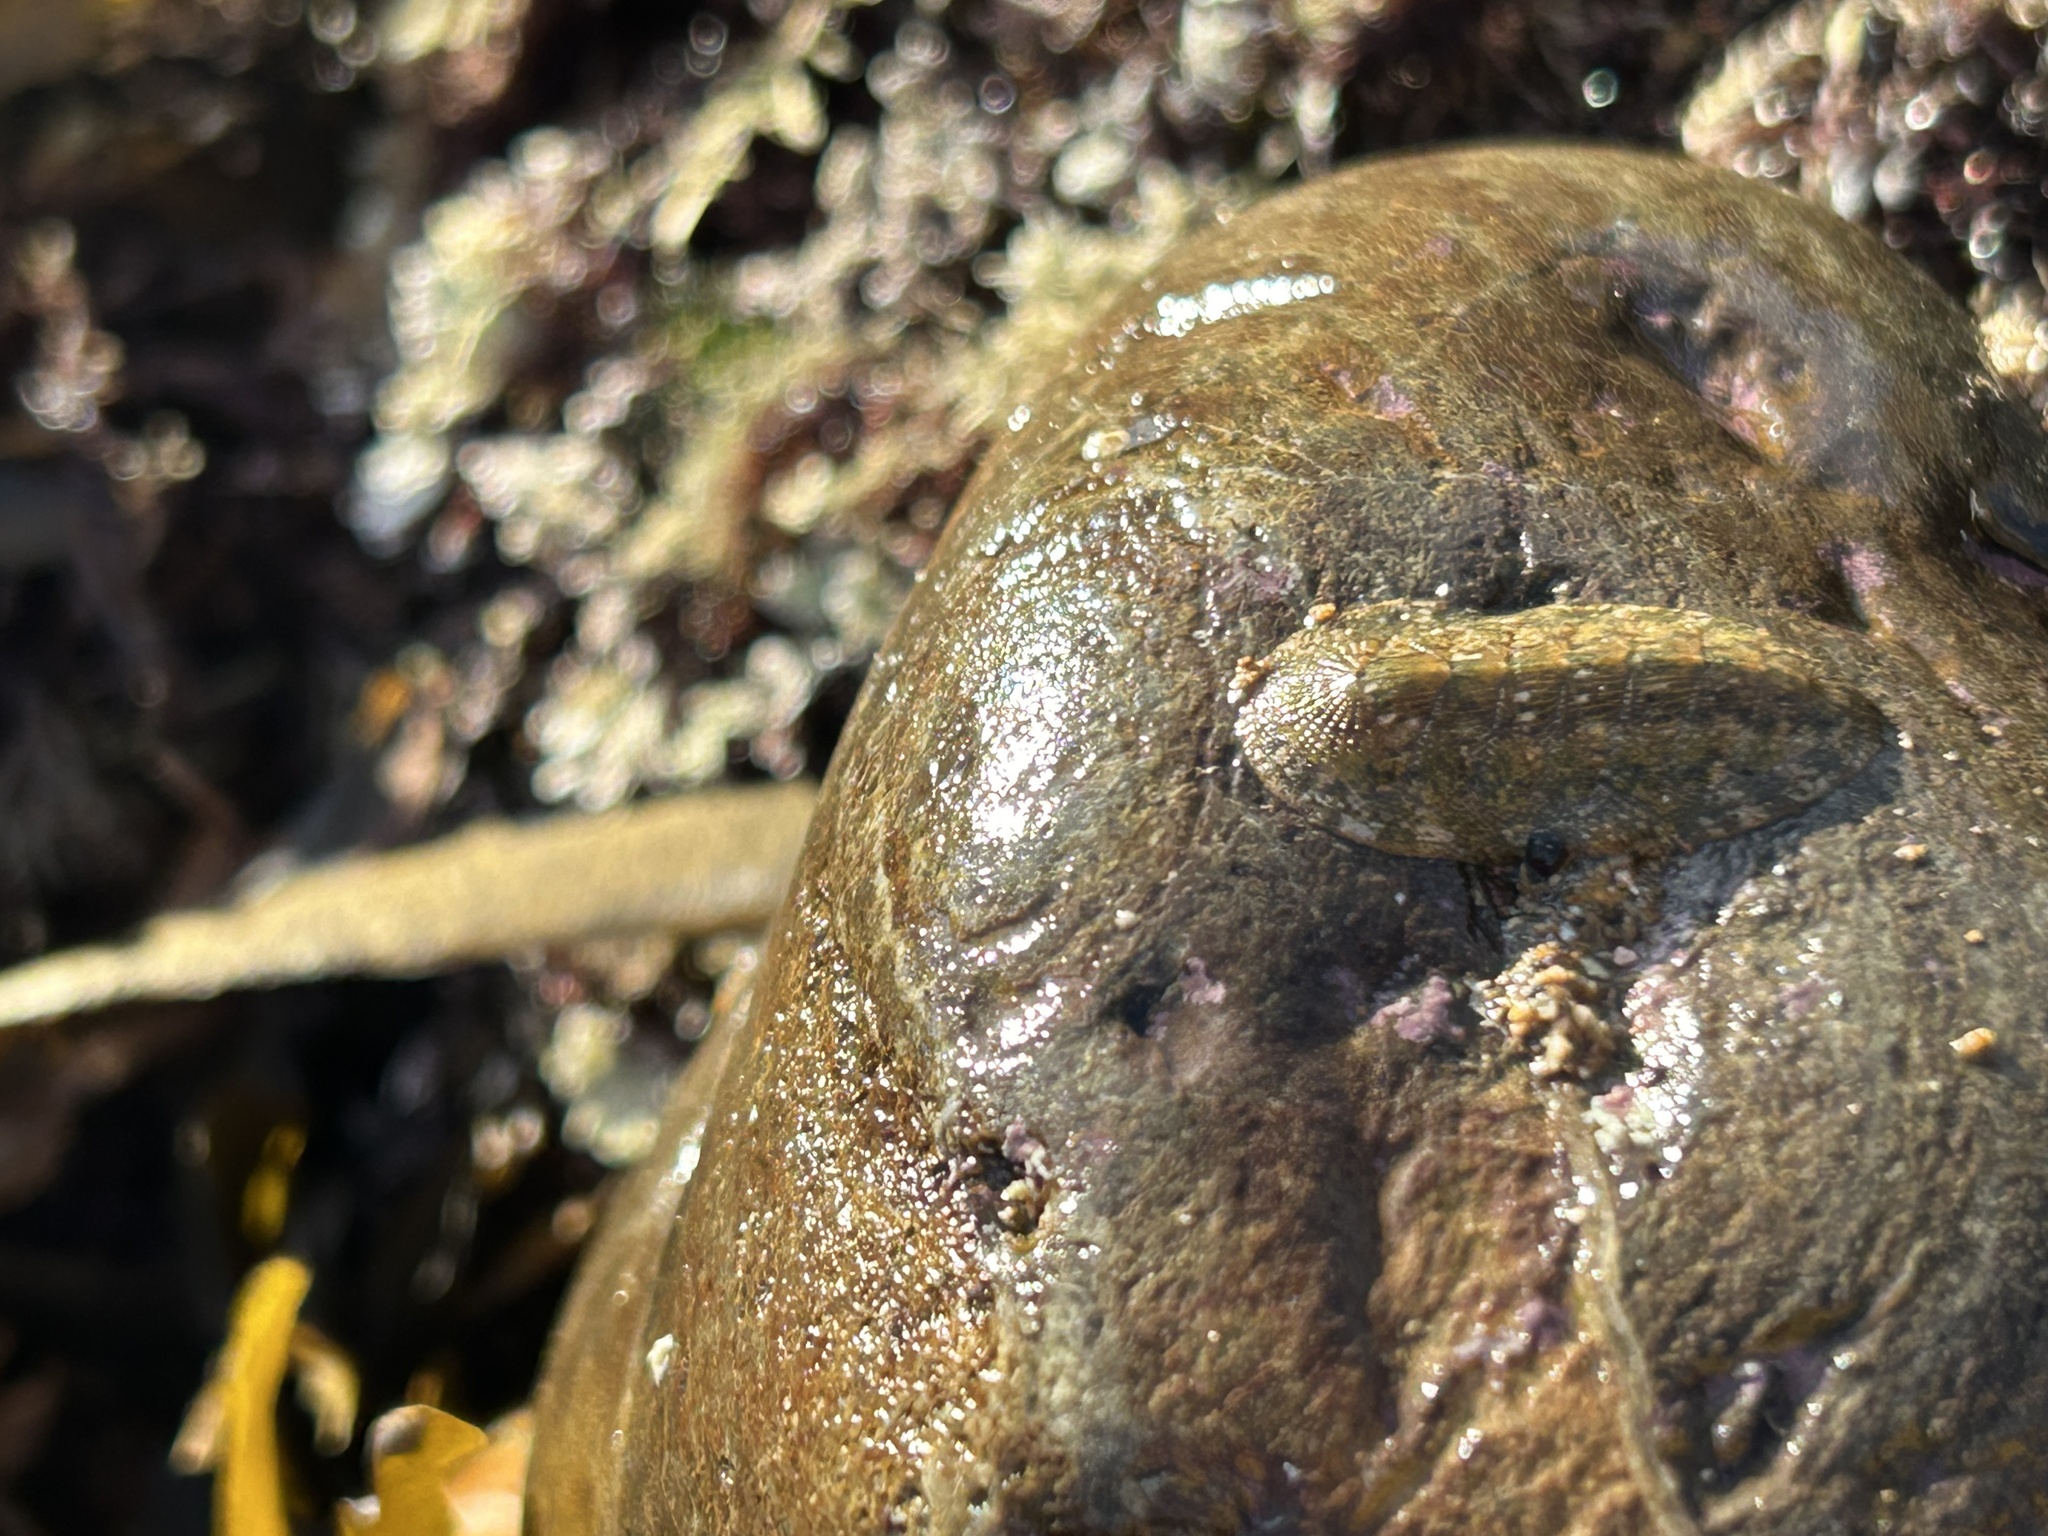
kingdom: Animalia
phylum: Mollusca
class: Polyplacophora
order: Chitonida
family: Ischnochitonidae
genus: Lepidozona
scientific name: Lepidozona pectinulata
